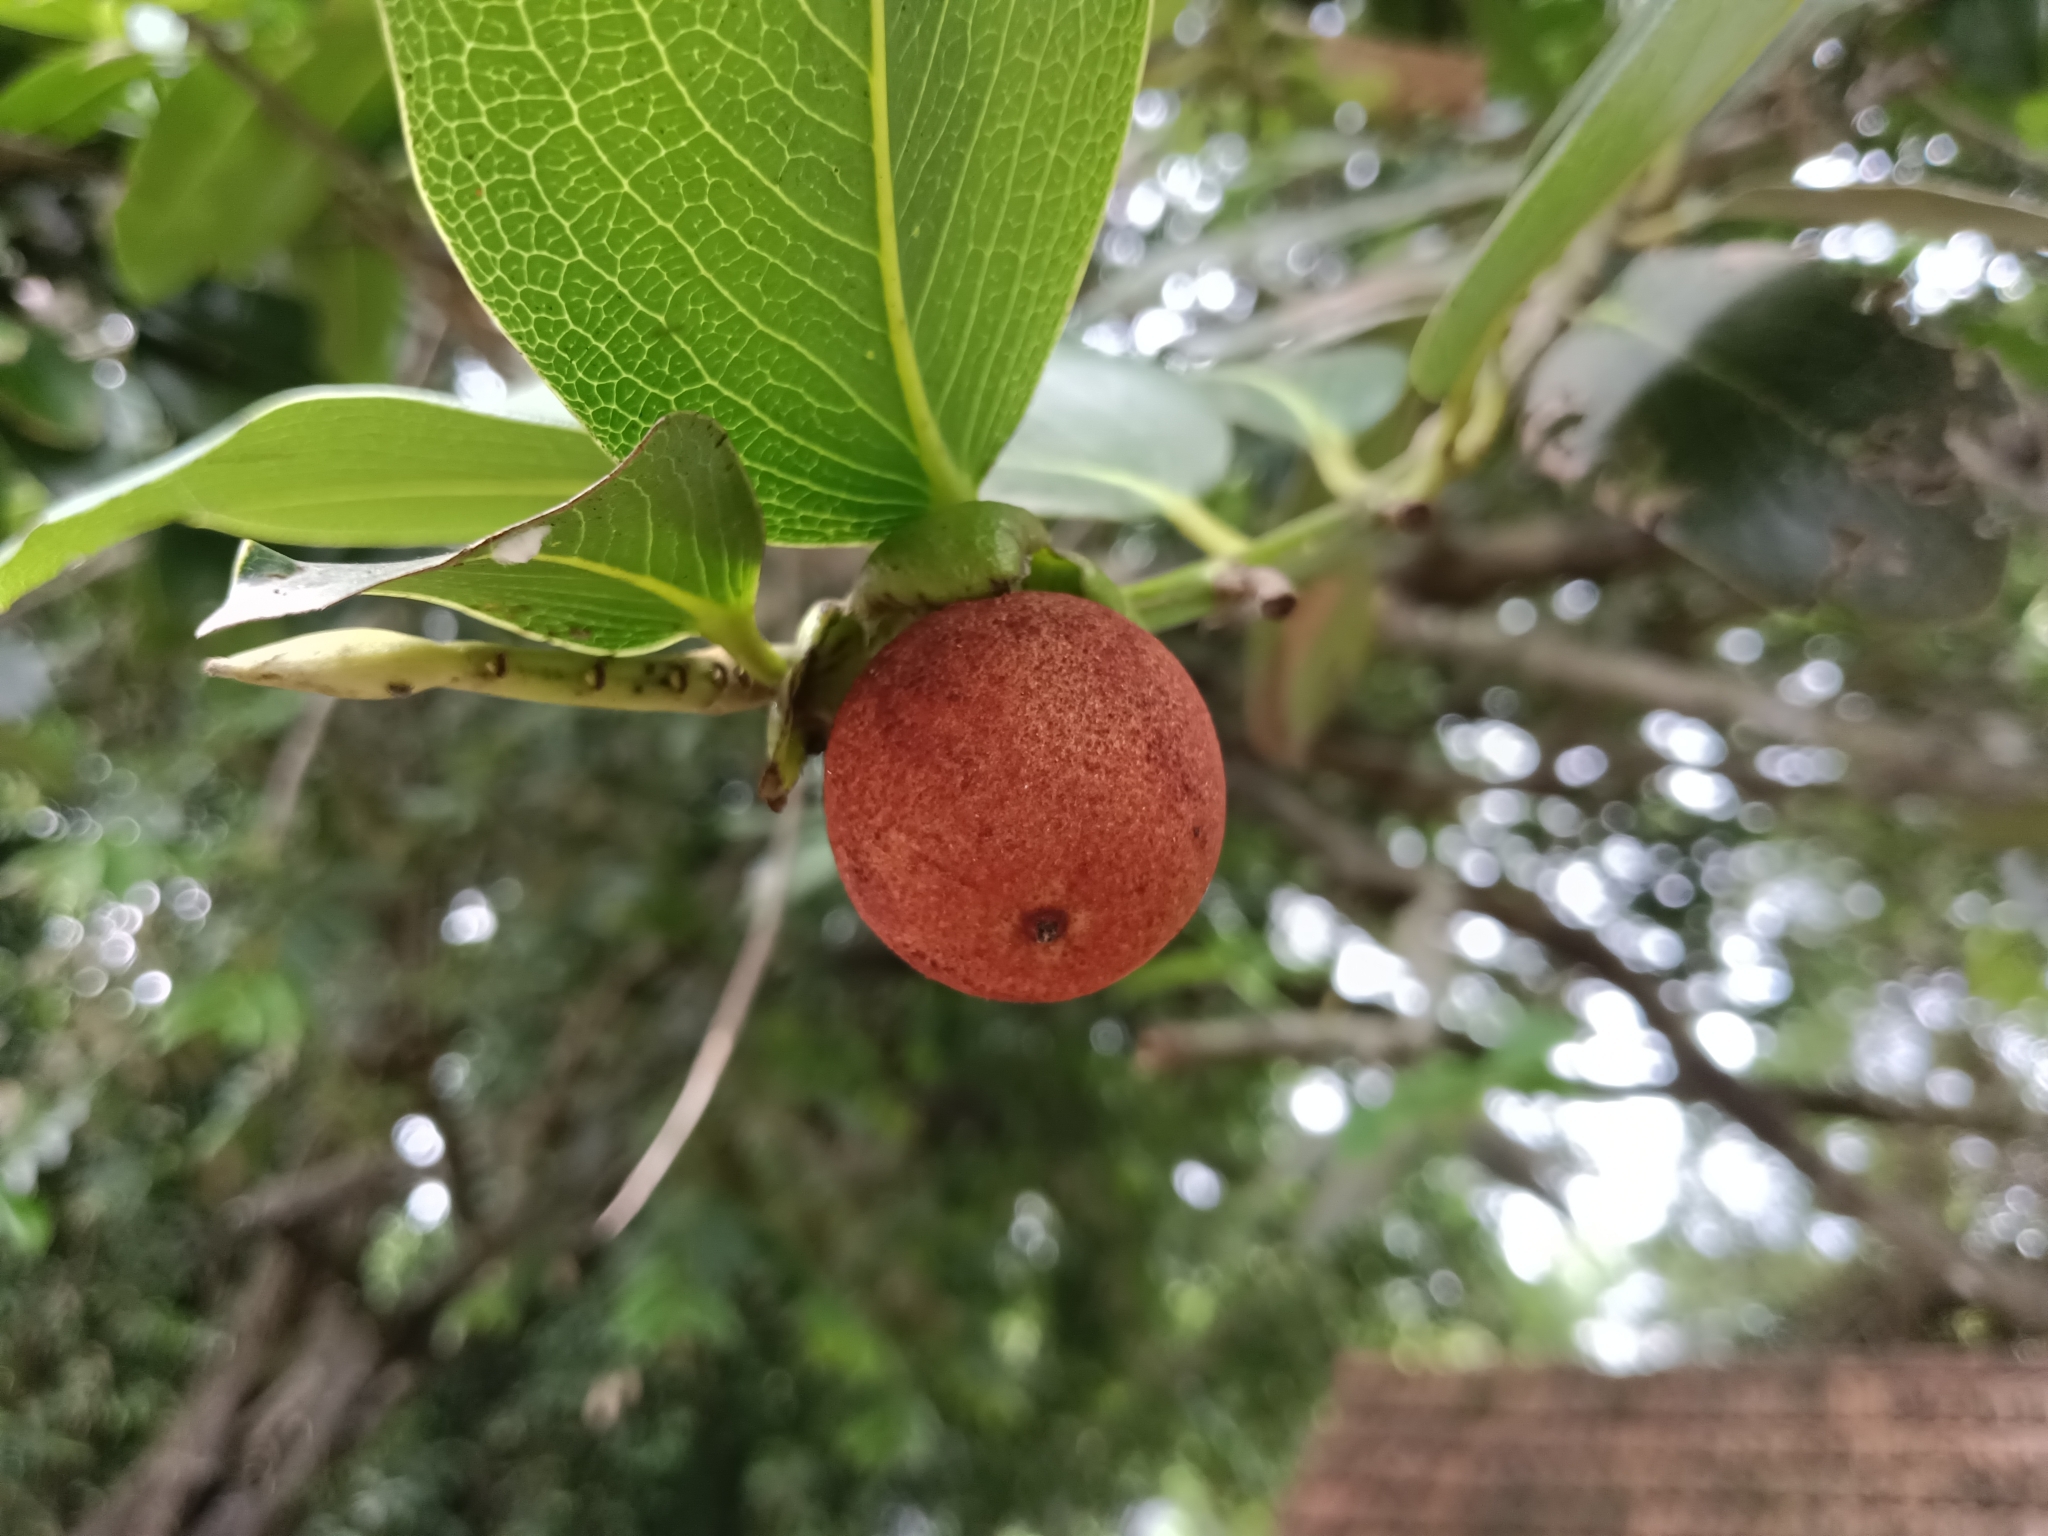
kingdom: Plantae
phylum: Tracheophyta
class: Magnoliopsida
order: Ericales
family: Ebenaceae
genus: Diospyros
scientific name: Diospyros malabarica
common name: Mountain ebony
